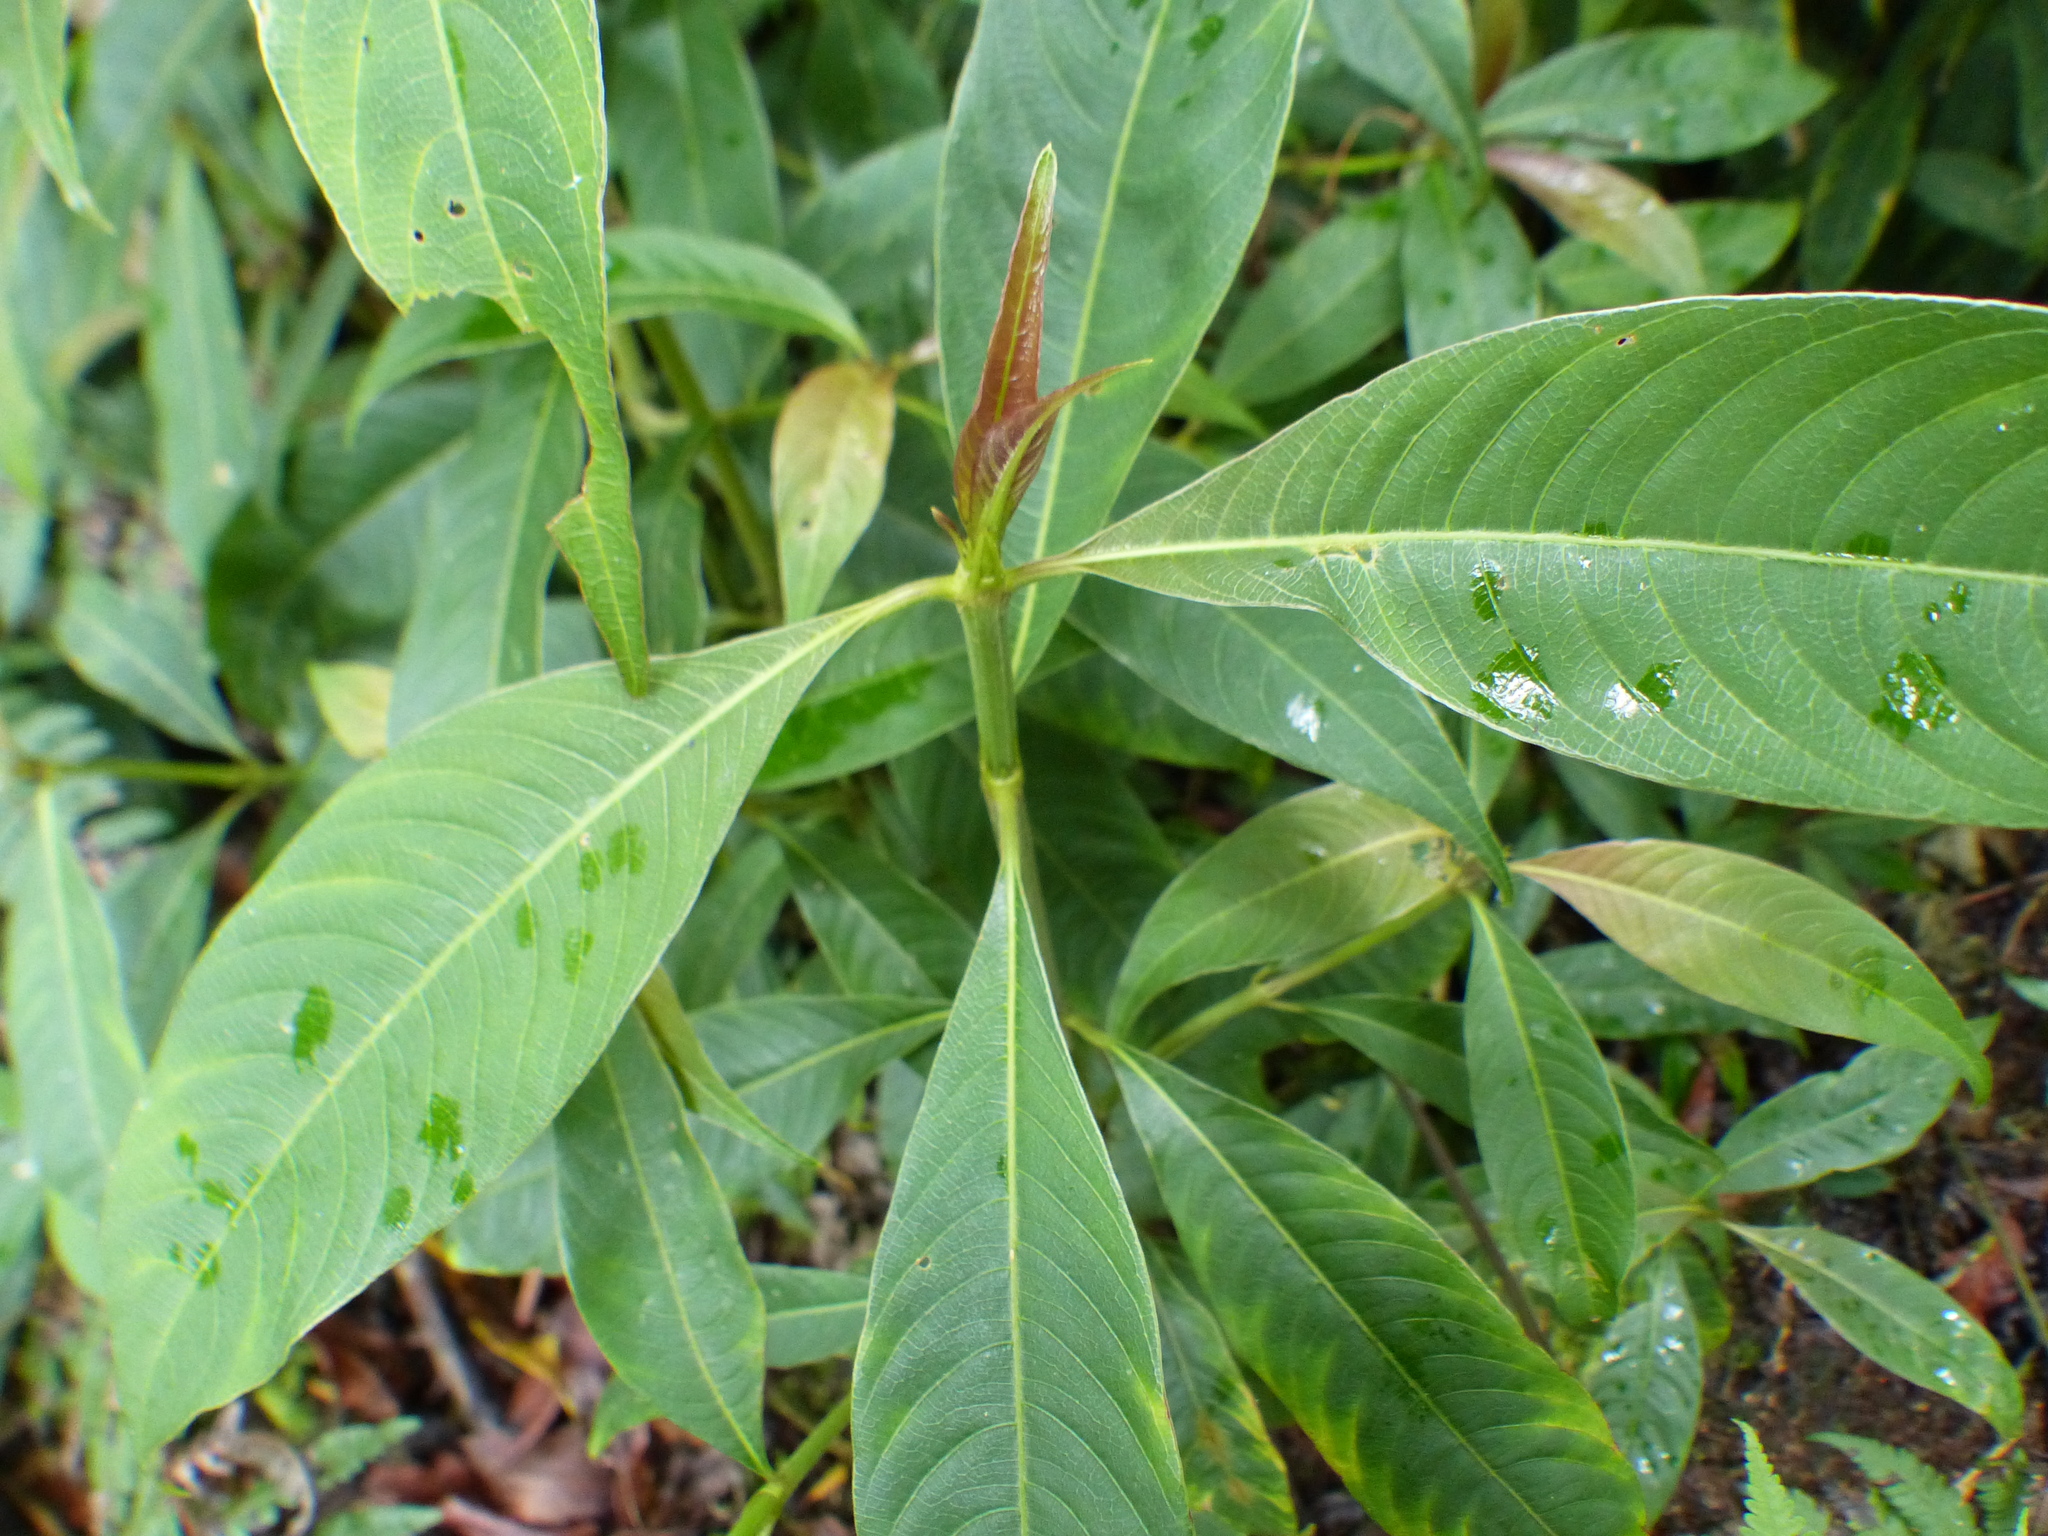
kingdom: Plantae
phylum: Tracheophyta
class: Magnoliopsida
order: Gentianales
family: Rubiaceae
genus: Palicourea
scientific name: Palicourea angustifolia
